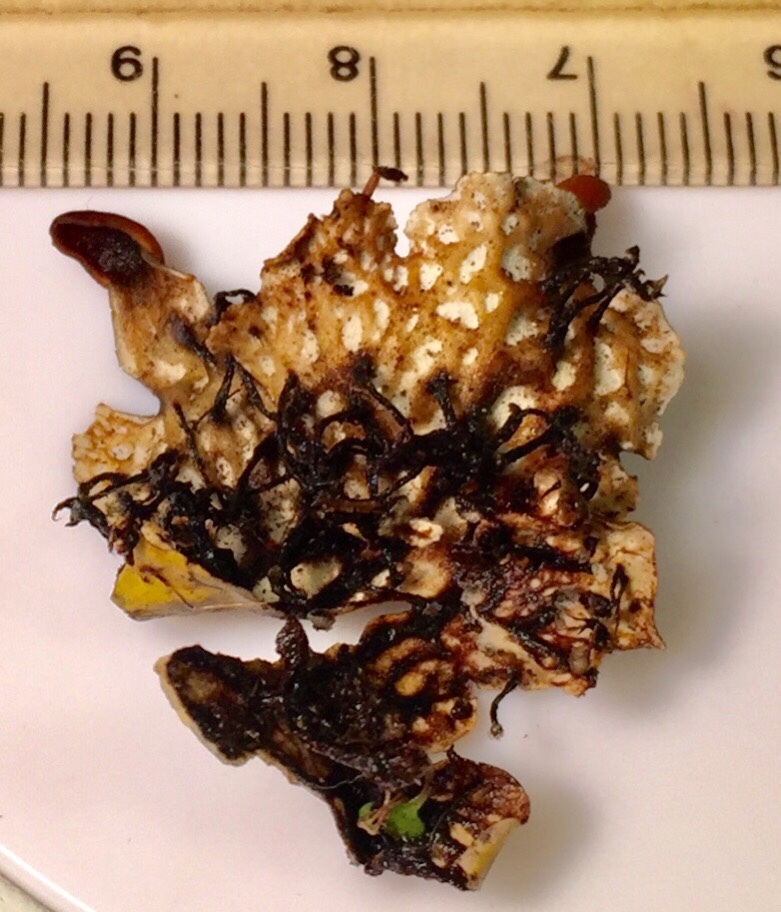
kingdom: Fungi
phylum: Ascomycota
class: Lecanoromycetes
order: Peltigerales
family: Peltigeraceae
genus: Peltigera
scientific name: Peltigera neopolydactyla
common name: Carpet pelt
